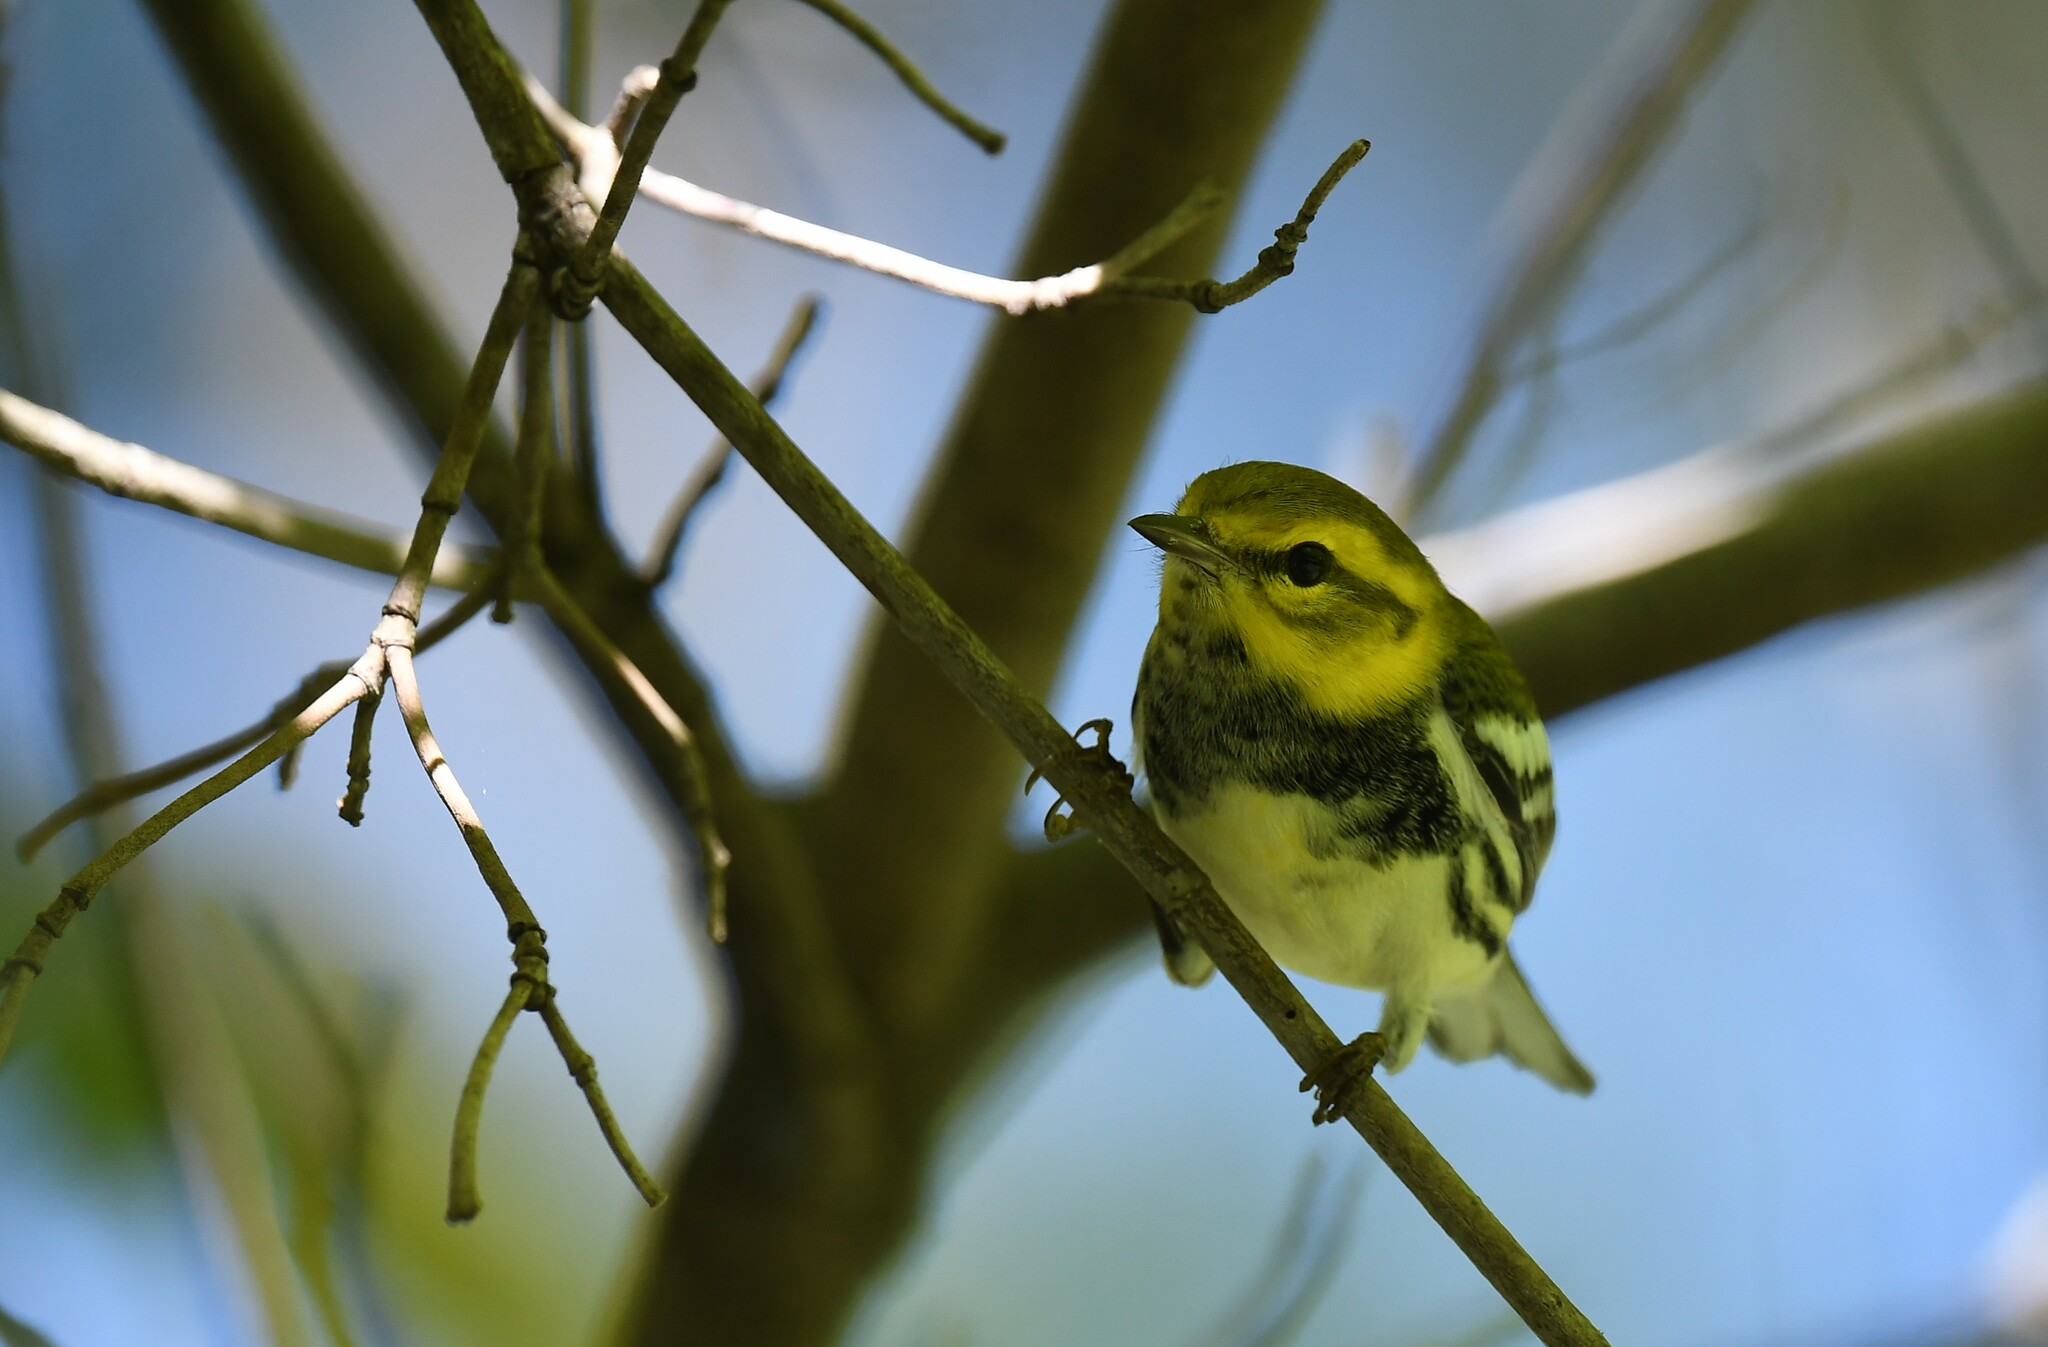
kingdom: Animalia
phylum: Chordata
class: Aves
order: Passeriformes
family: Parulidae
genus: Setophaga
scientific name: Setophaga virens
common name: Black-throated green warbler
